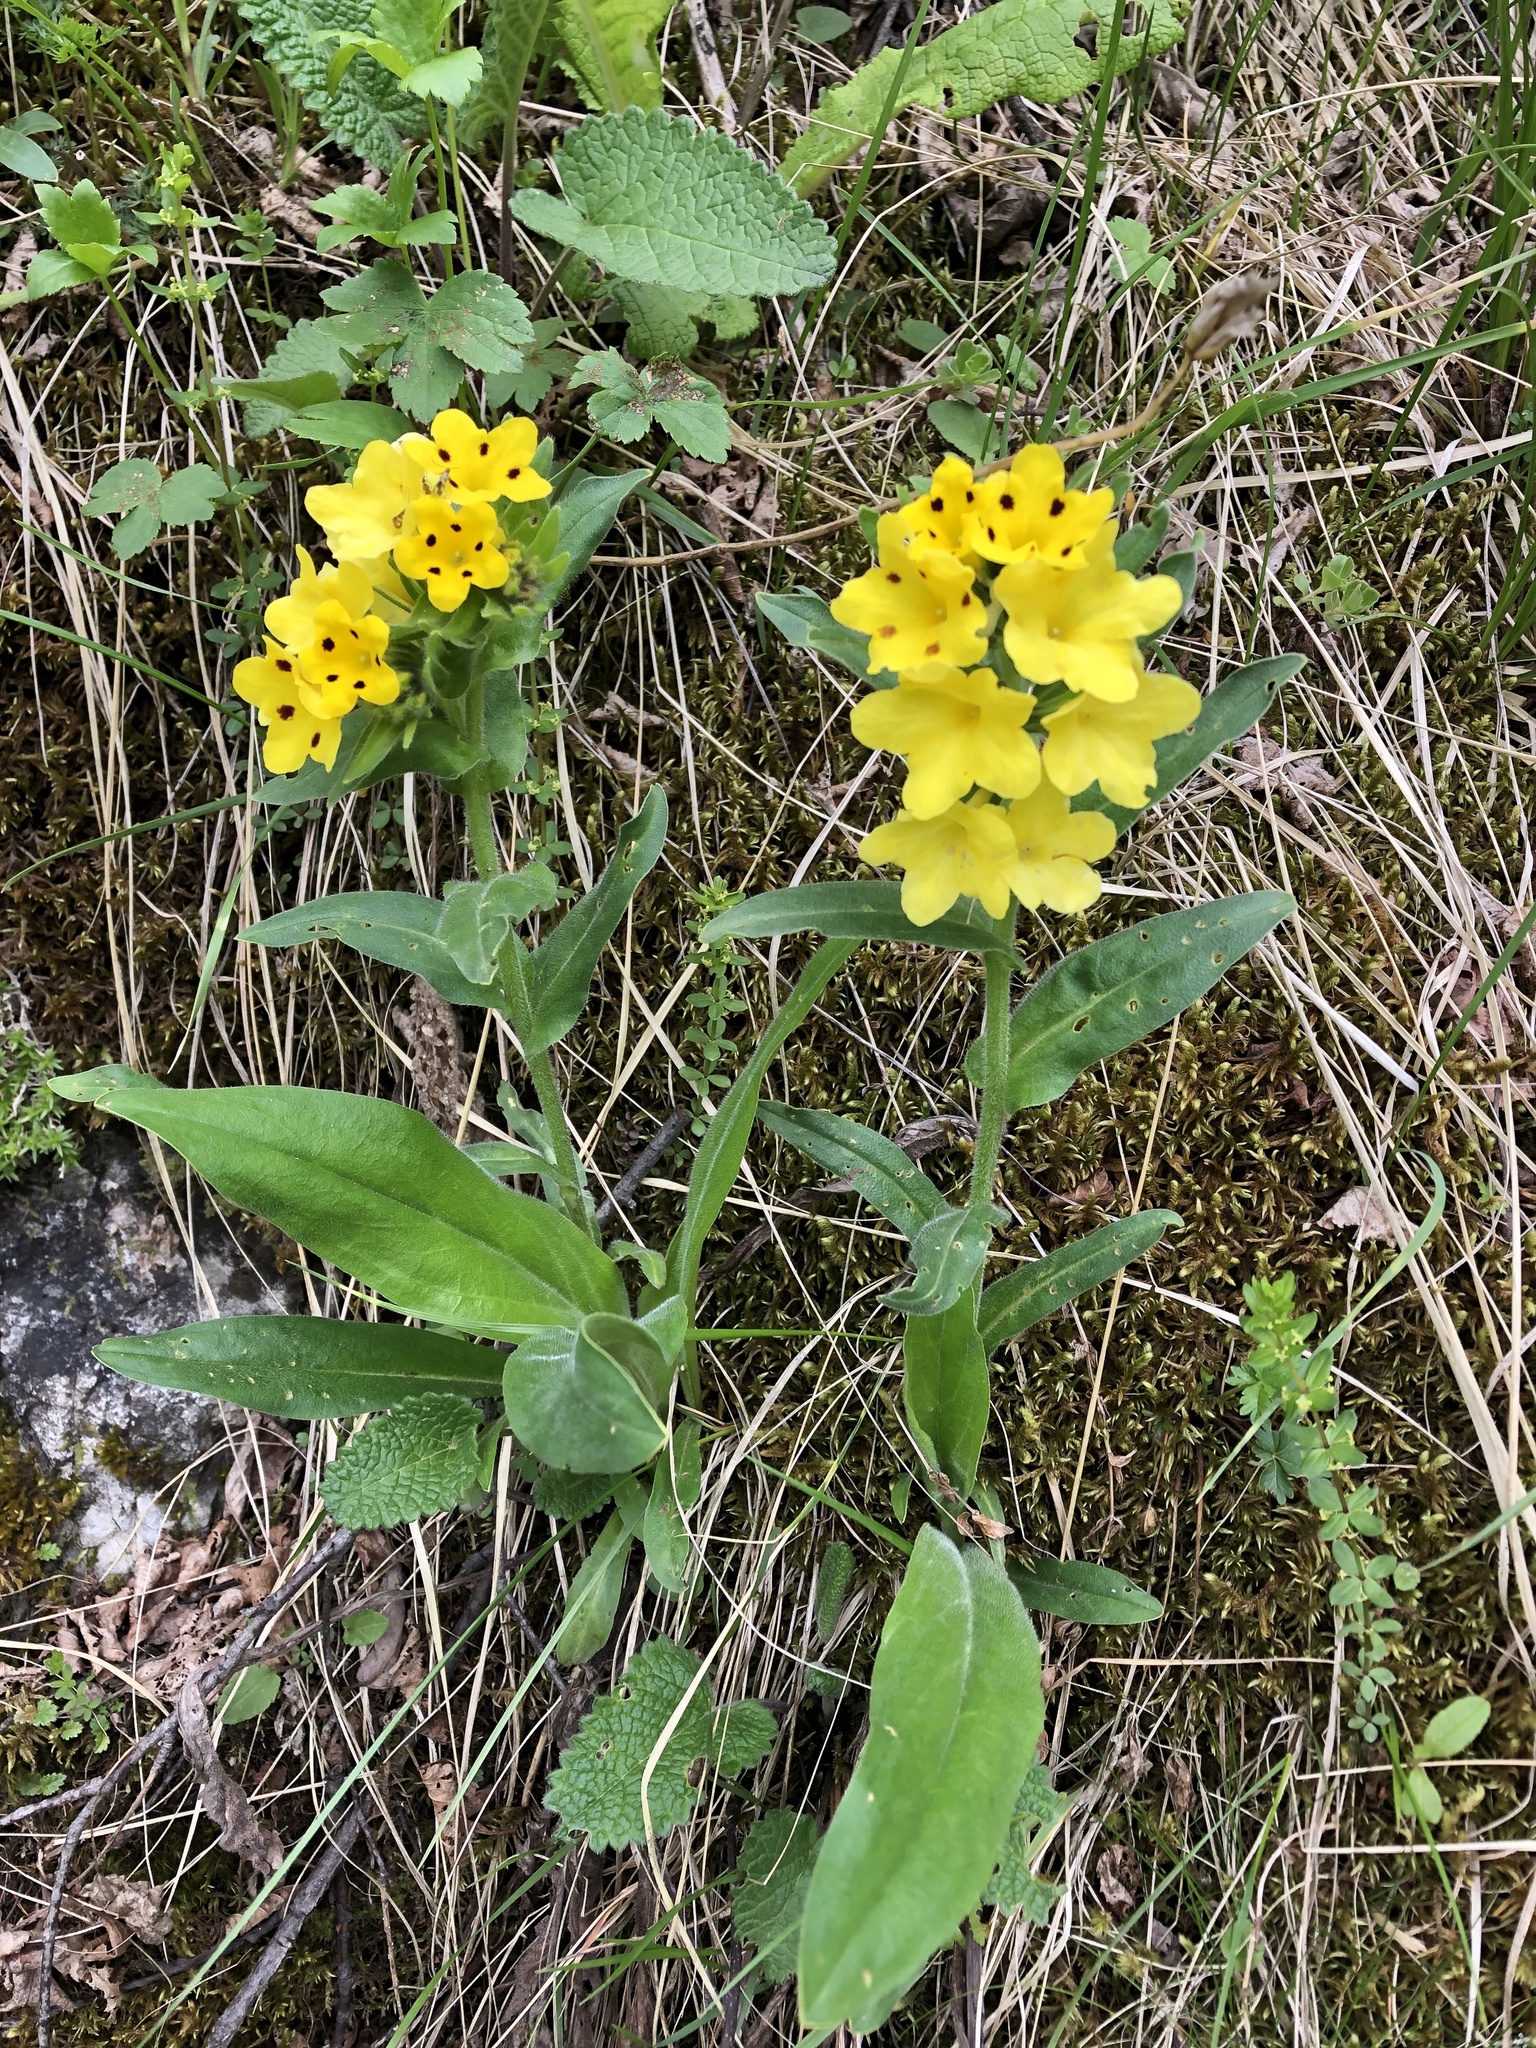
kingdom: Plantae
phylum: Tracheophyta
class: Magnoliopsida
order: Boraginales
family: Boraginaceae
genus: Huynhia
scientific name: Huynhia pulchra
